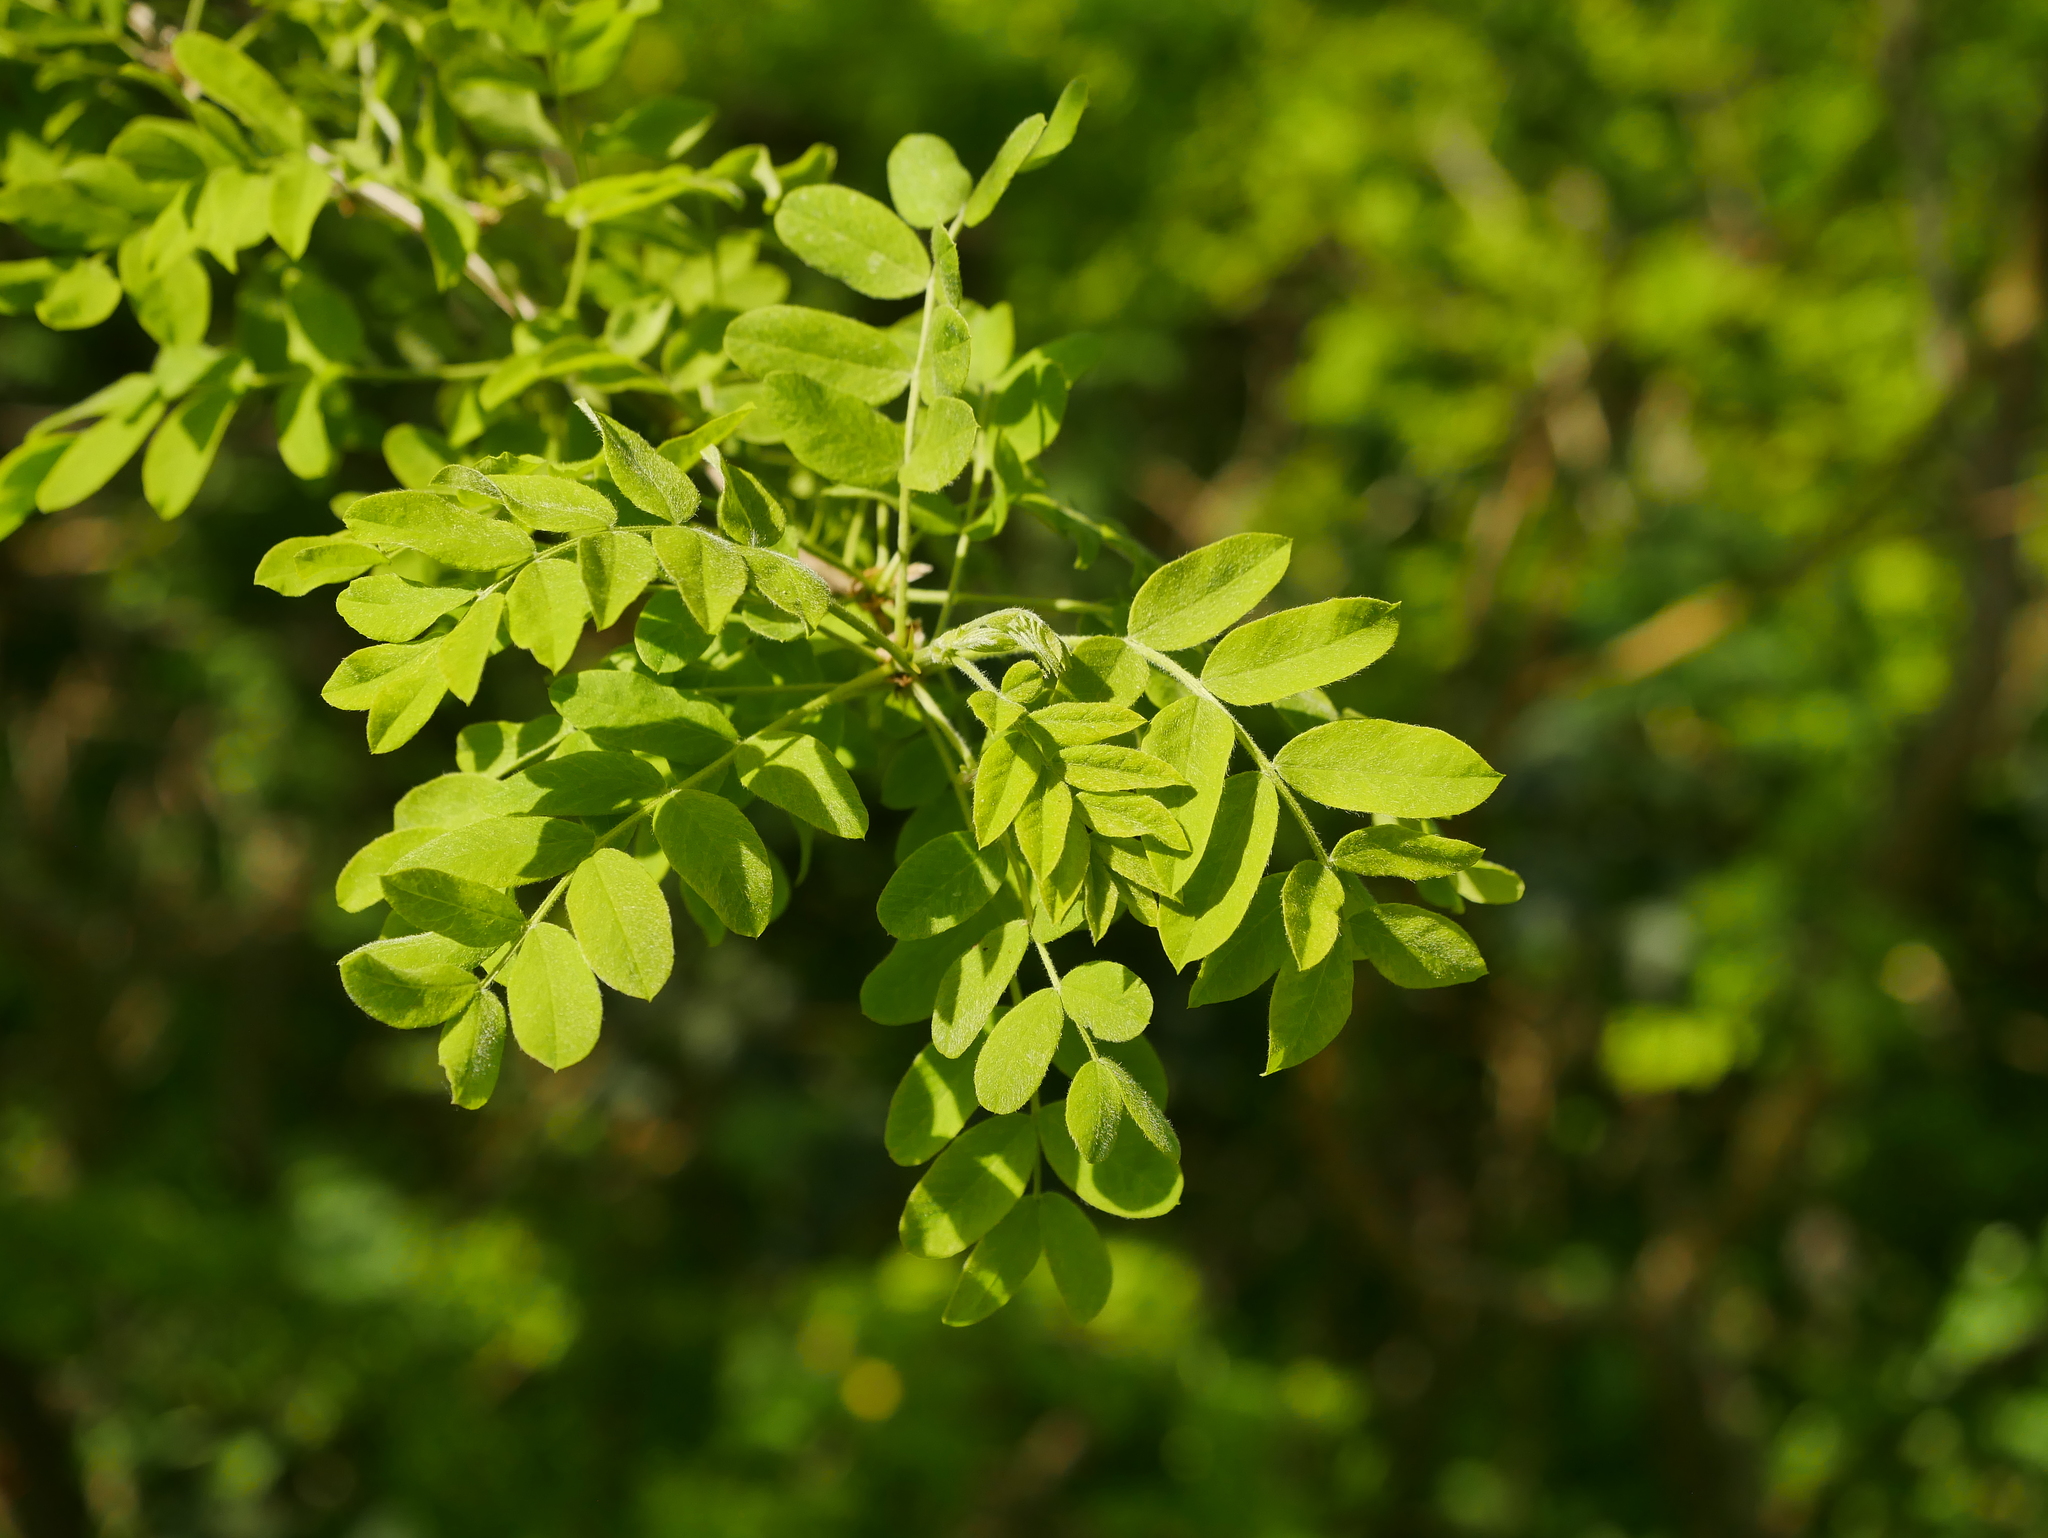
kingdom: Plantae
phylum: Tracheophyta
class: Magnoliopsida
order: Fabales
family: Fabaceae
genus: Caragana
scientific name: Caragana arborescens
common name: Siberian peashrub
